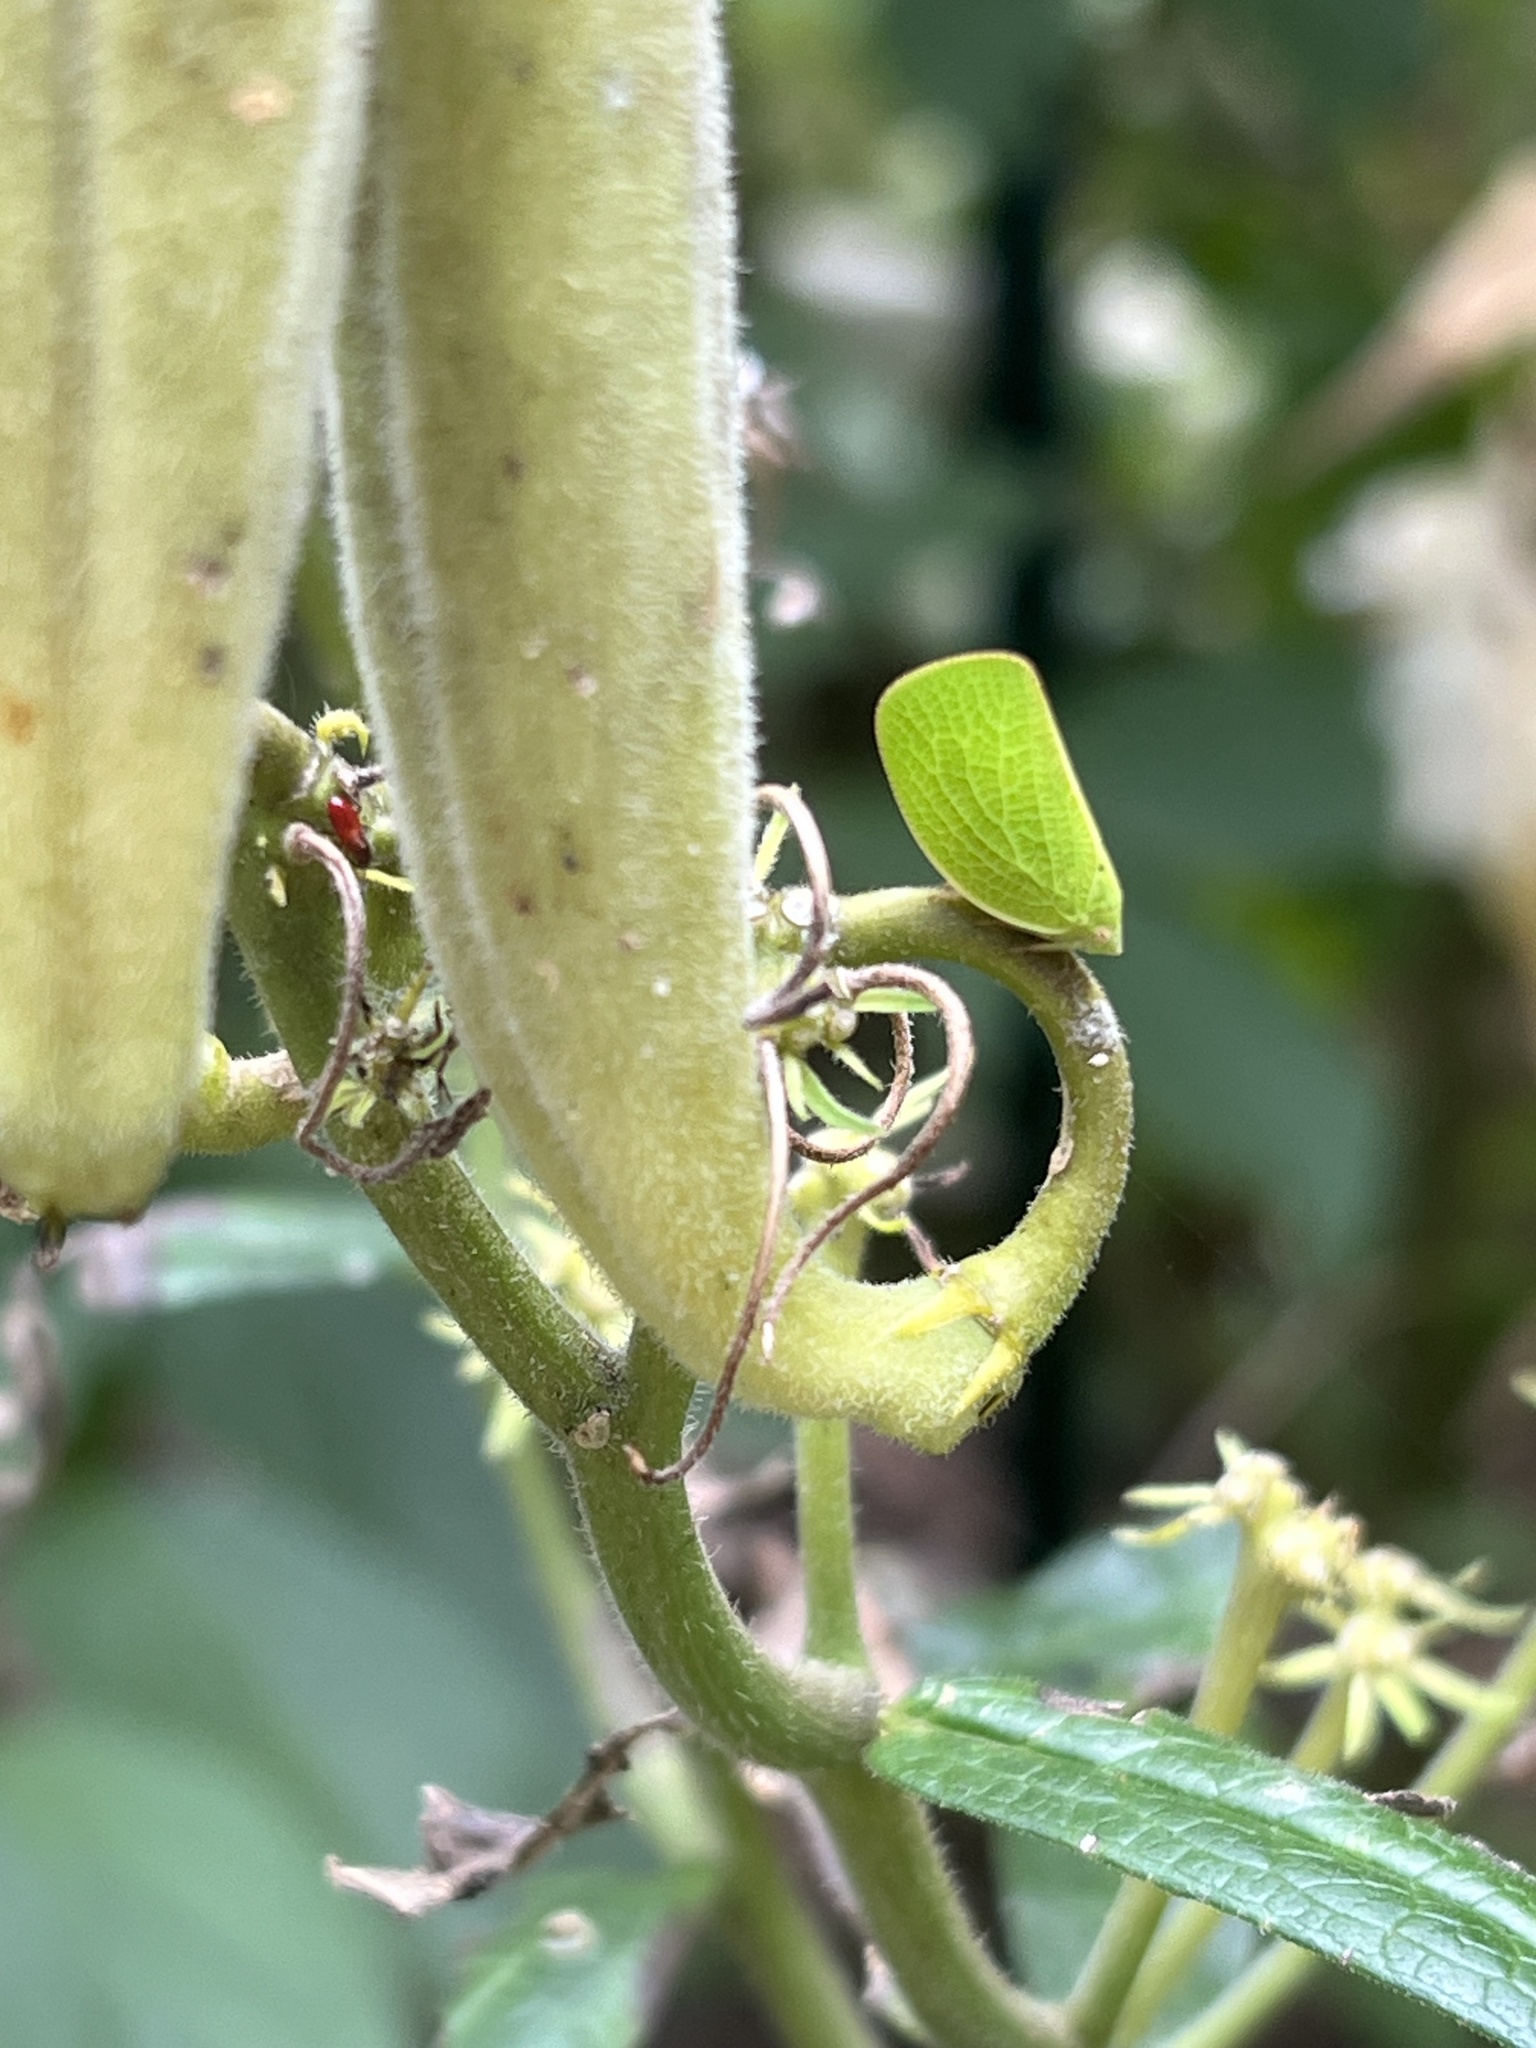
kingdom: Animalia
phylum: Arthropoda
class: Insecta
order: Hemiptera
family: Acanaloniidae
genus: Acanalonia
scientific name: Acanalonia conica
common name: Green cone-headed planthopper
